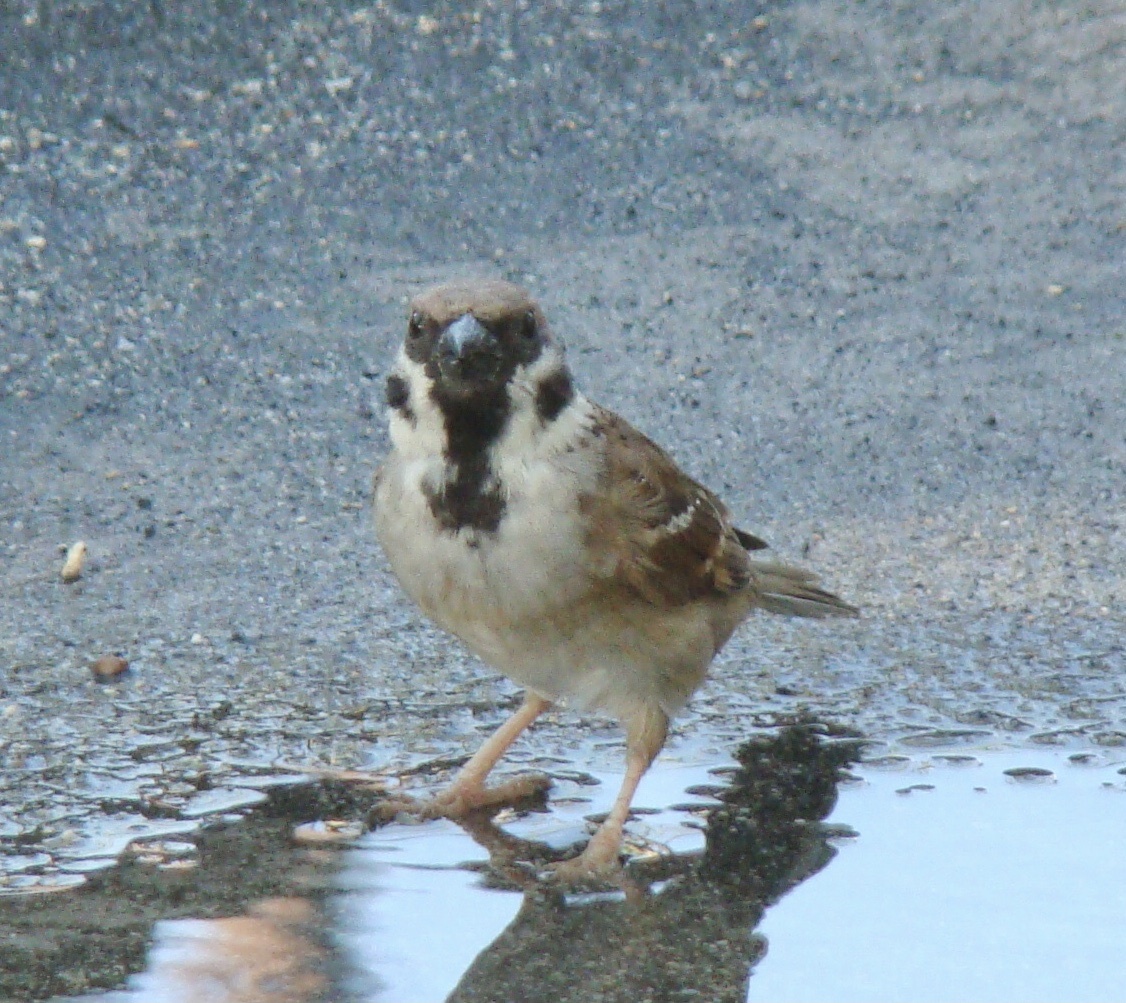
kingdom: Animalia
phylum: Chordata
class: Aves
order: Passeriformes
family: Passeridae
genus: Passer
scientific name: Passer montanus
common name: Eurasian tree sparrow
